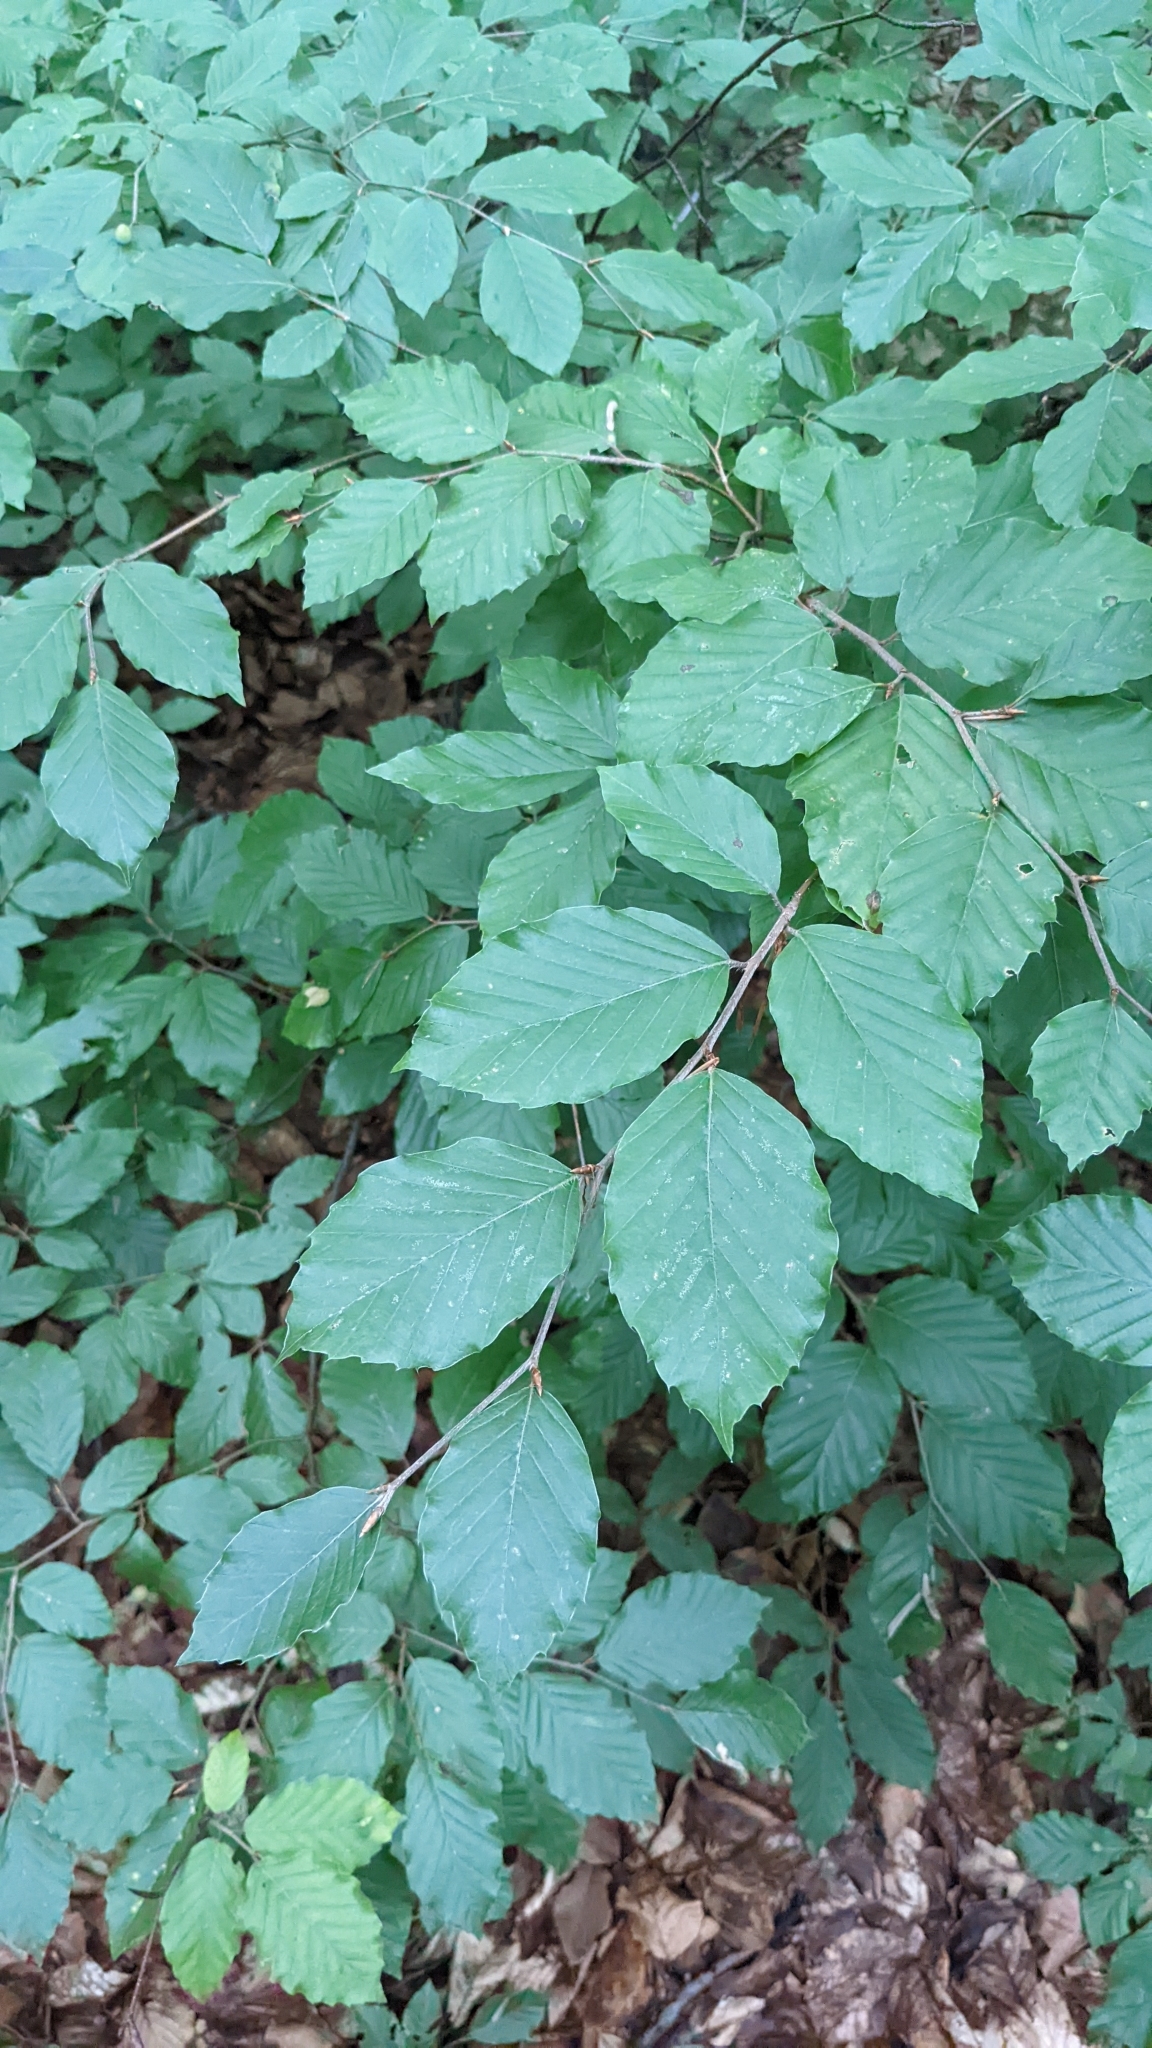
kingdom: Plantae
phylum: Tracheophyta
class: Magnoliopsida
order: Fagales
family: Fagaceae
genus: Fagus
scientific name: Fagus sylvatica
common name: Beech
